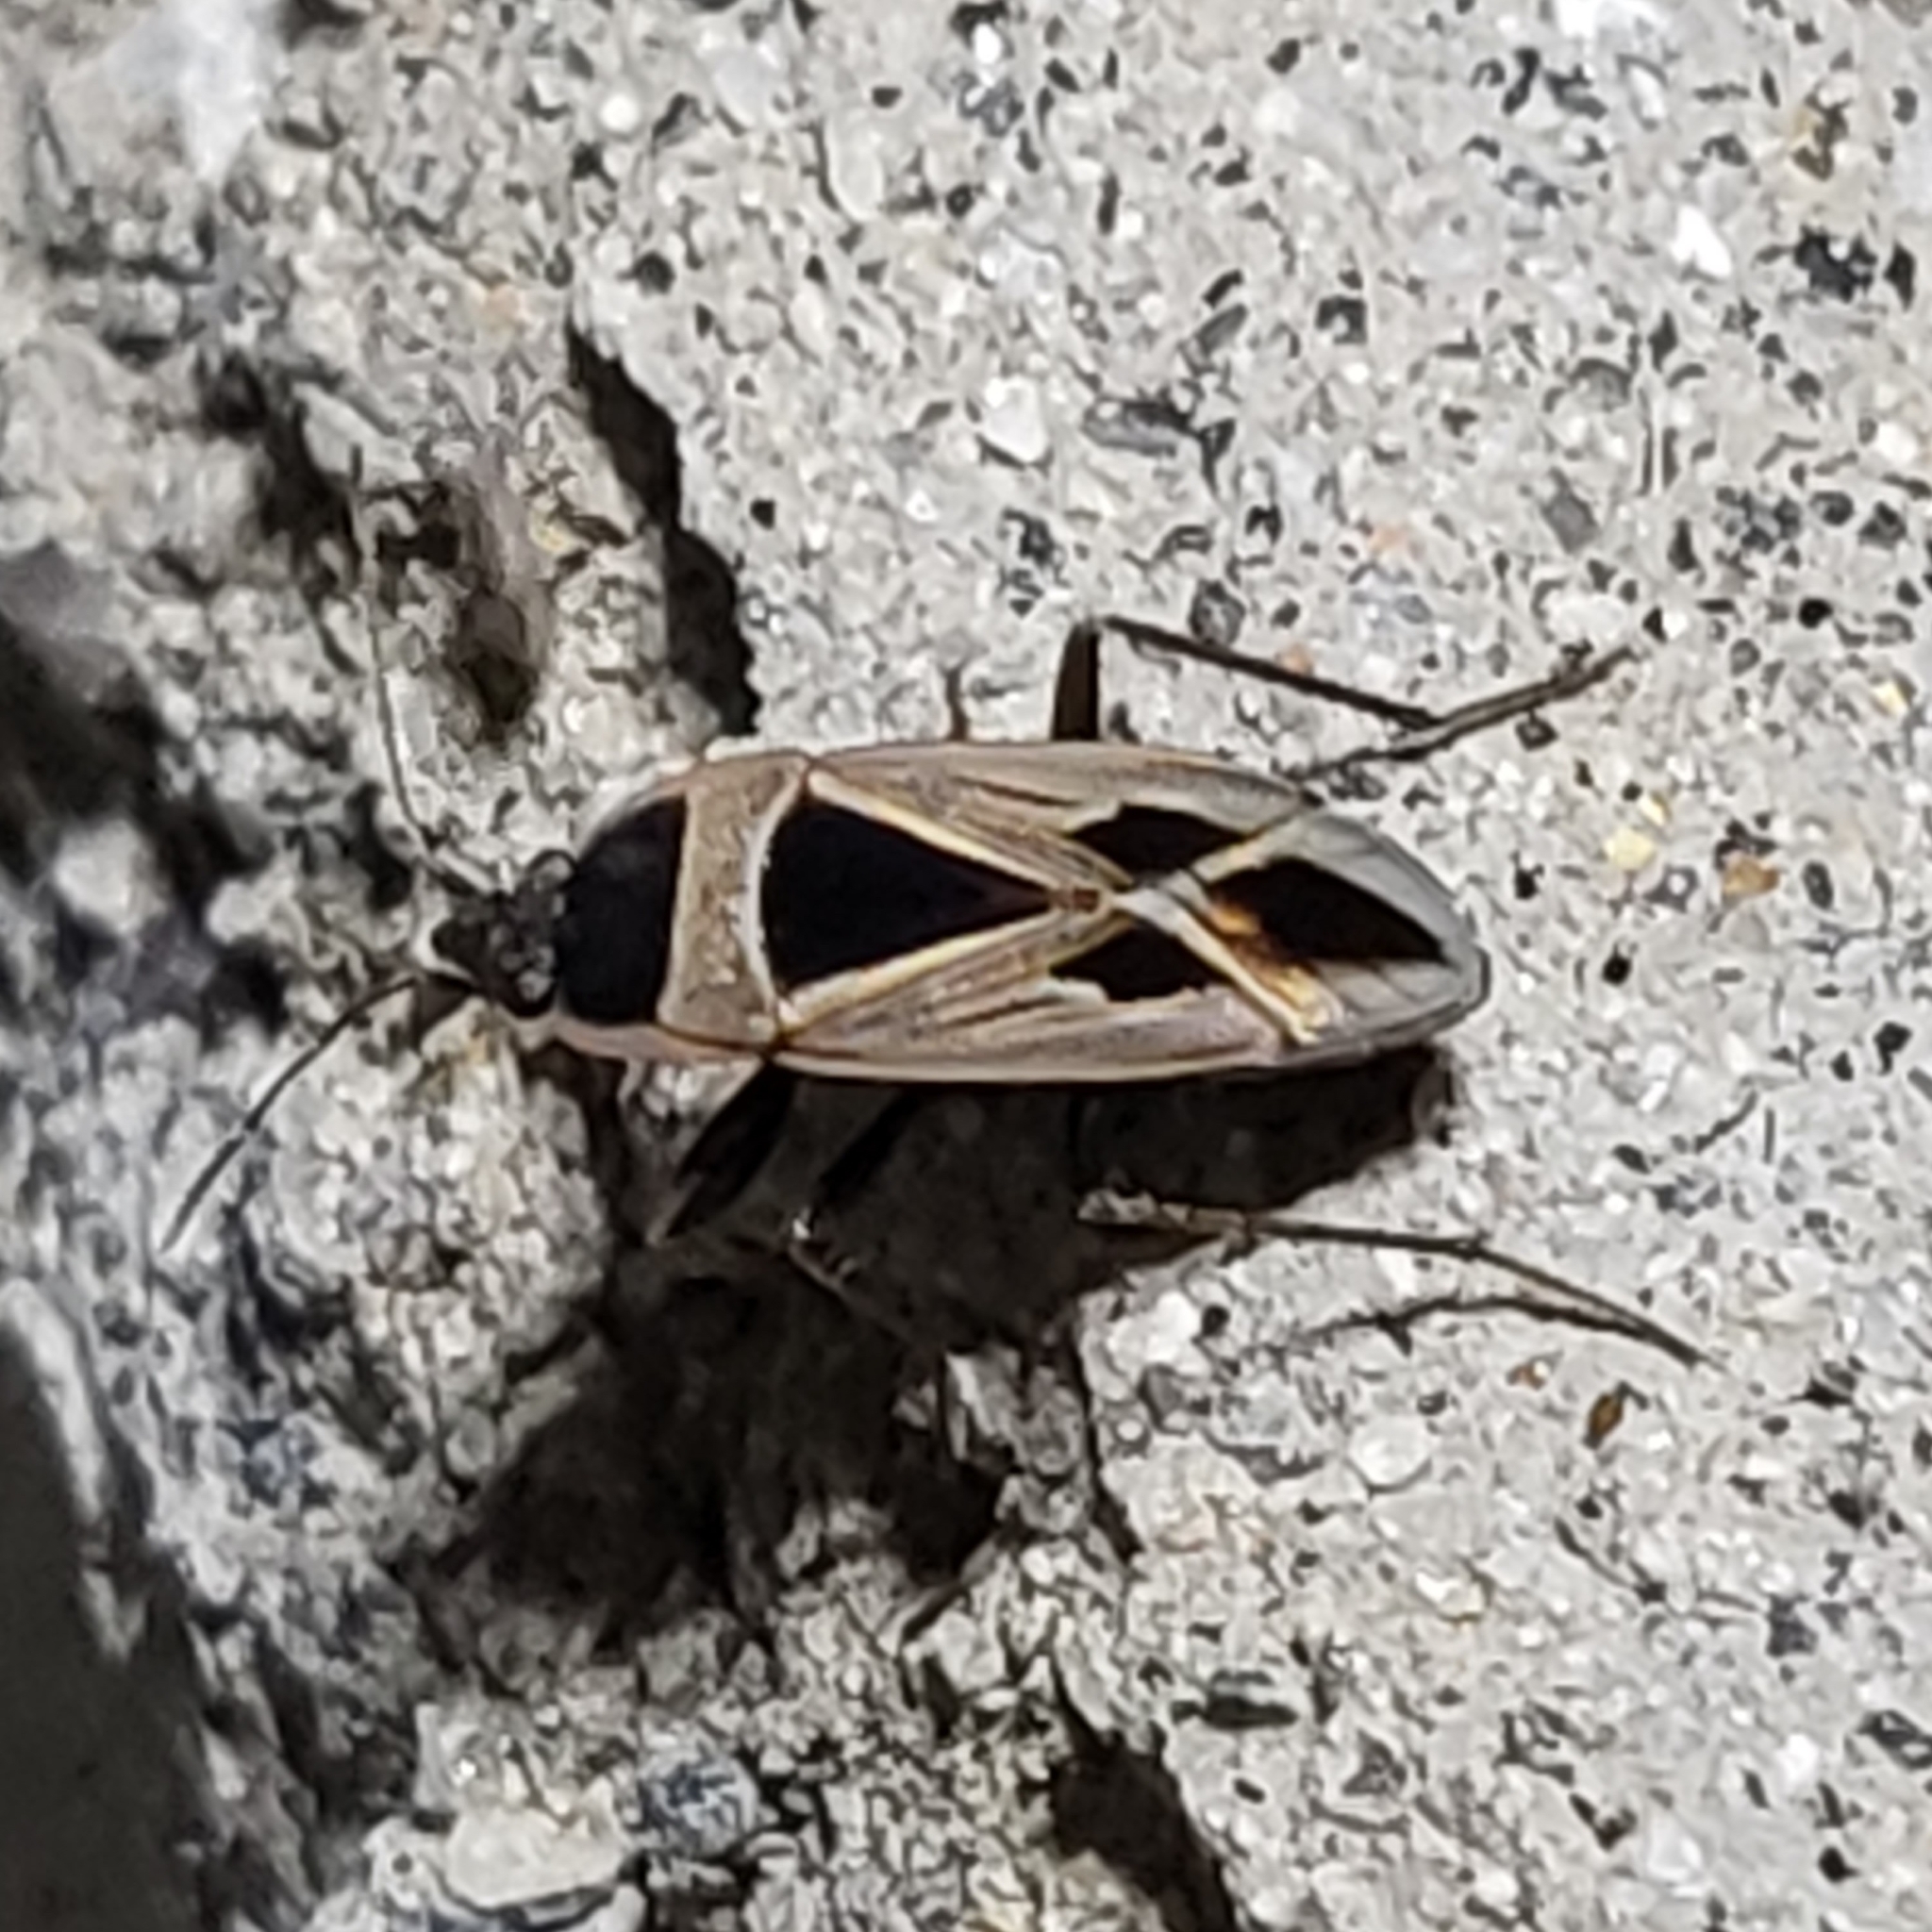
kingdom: Animalia
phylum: Arthropoda
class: Insecta
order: Hemiptera
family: Rhyparochromidae
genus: Xanthochilus
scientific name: Xanthochilus saturnius
